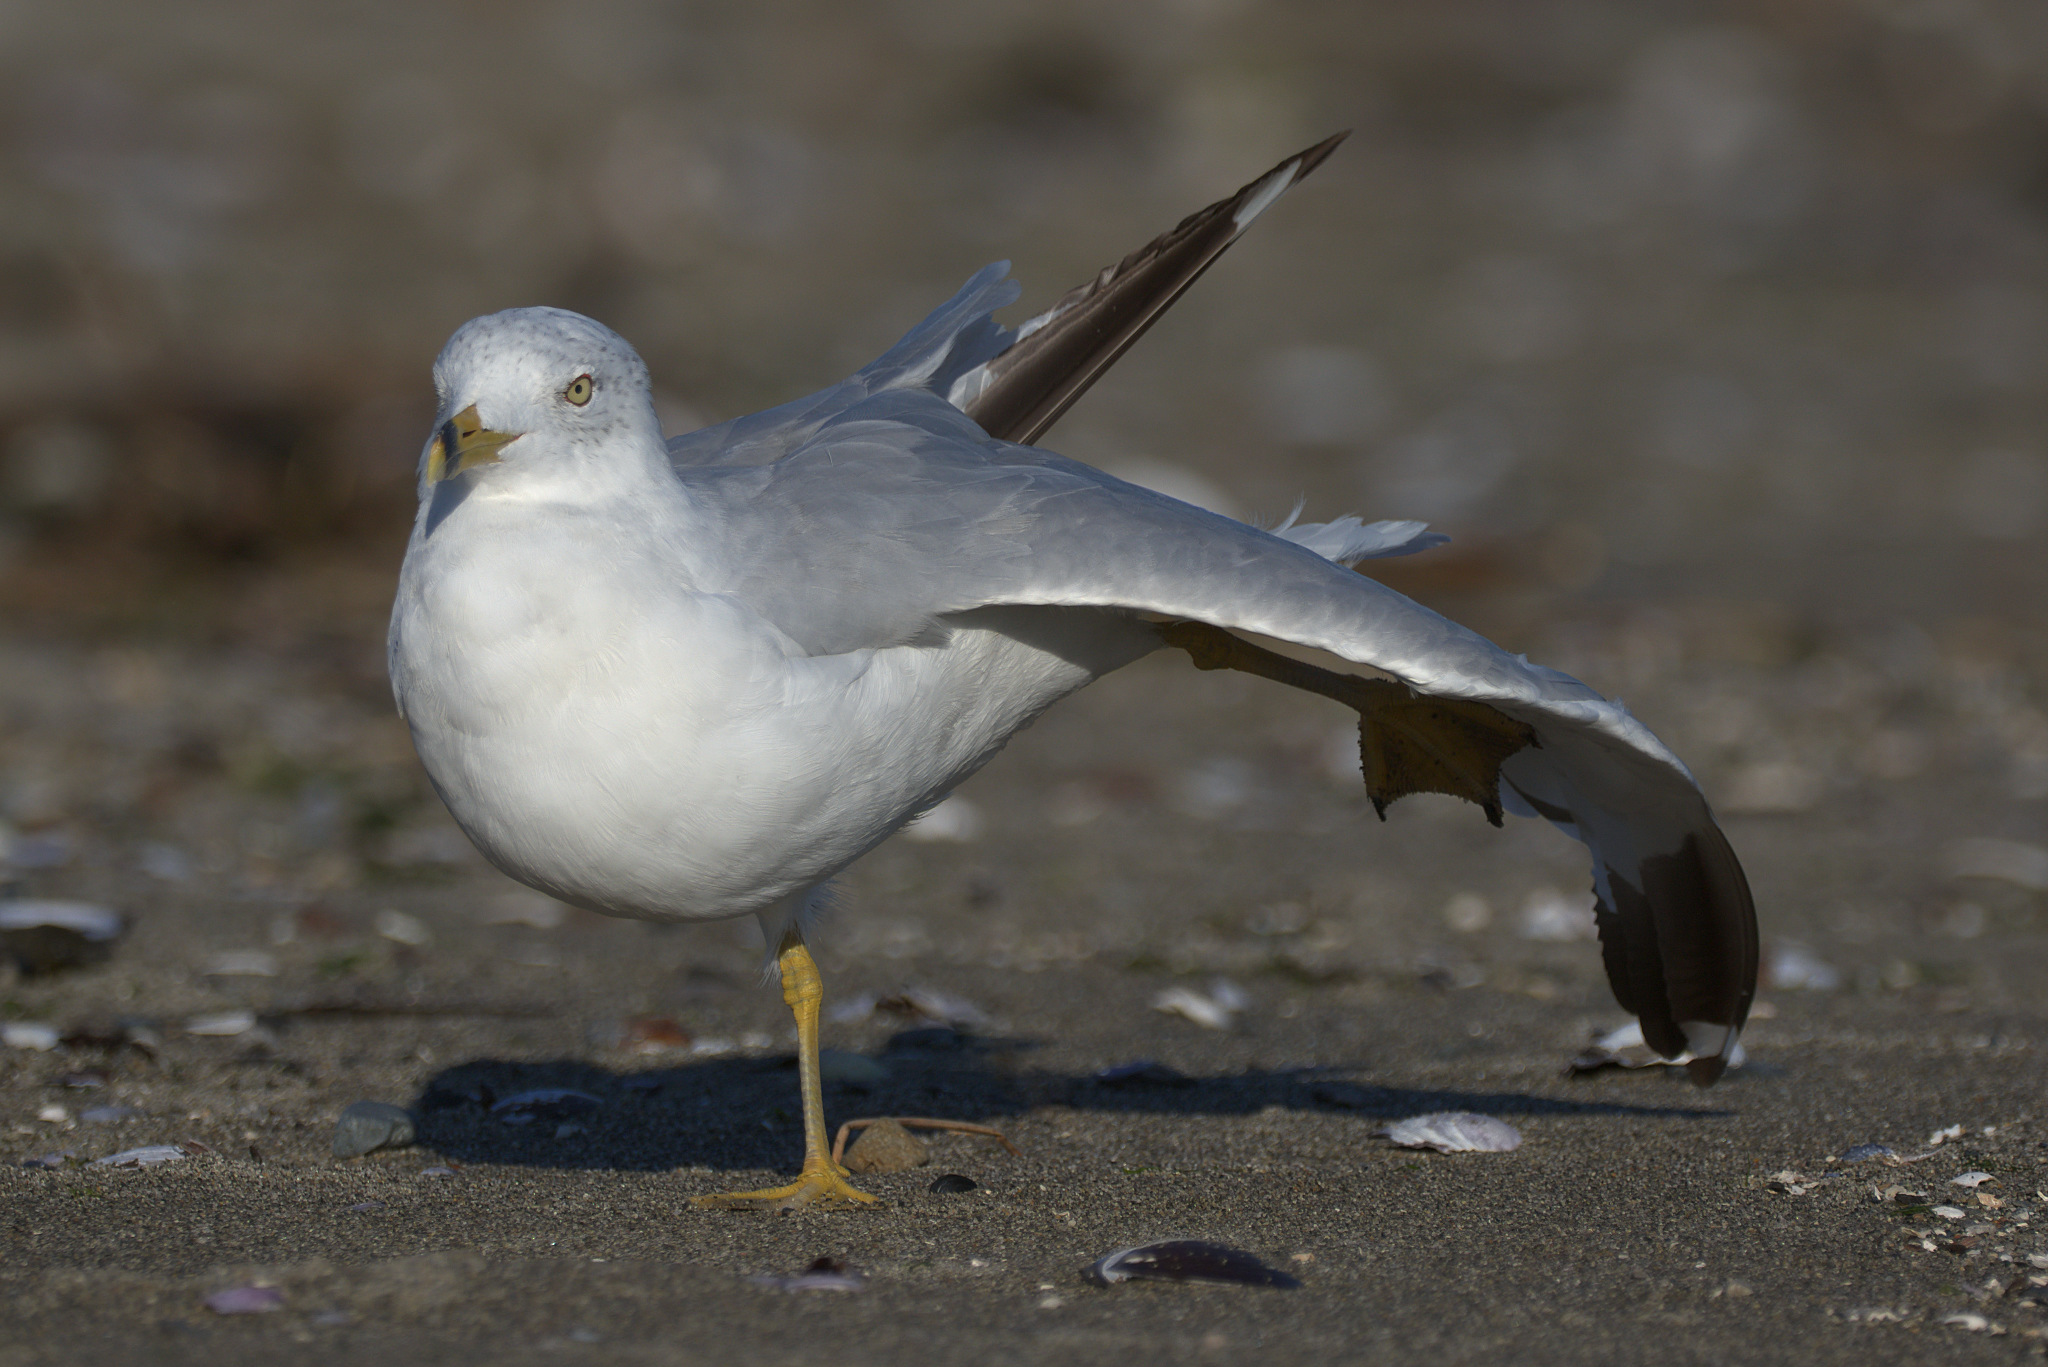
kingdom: Animalia
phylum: Chordata
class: Aves
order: Charadriiformes
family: Laridae
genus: Larus
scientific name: Larus delawarensis
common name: Ring-billed gull
